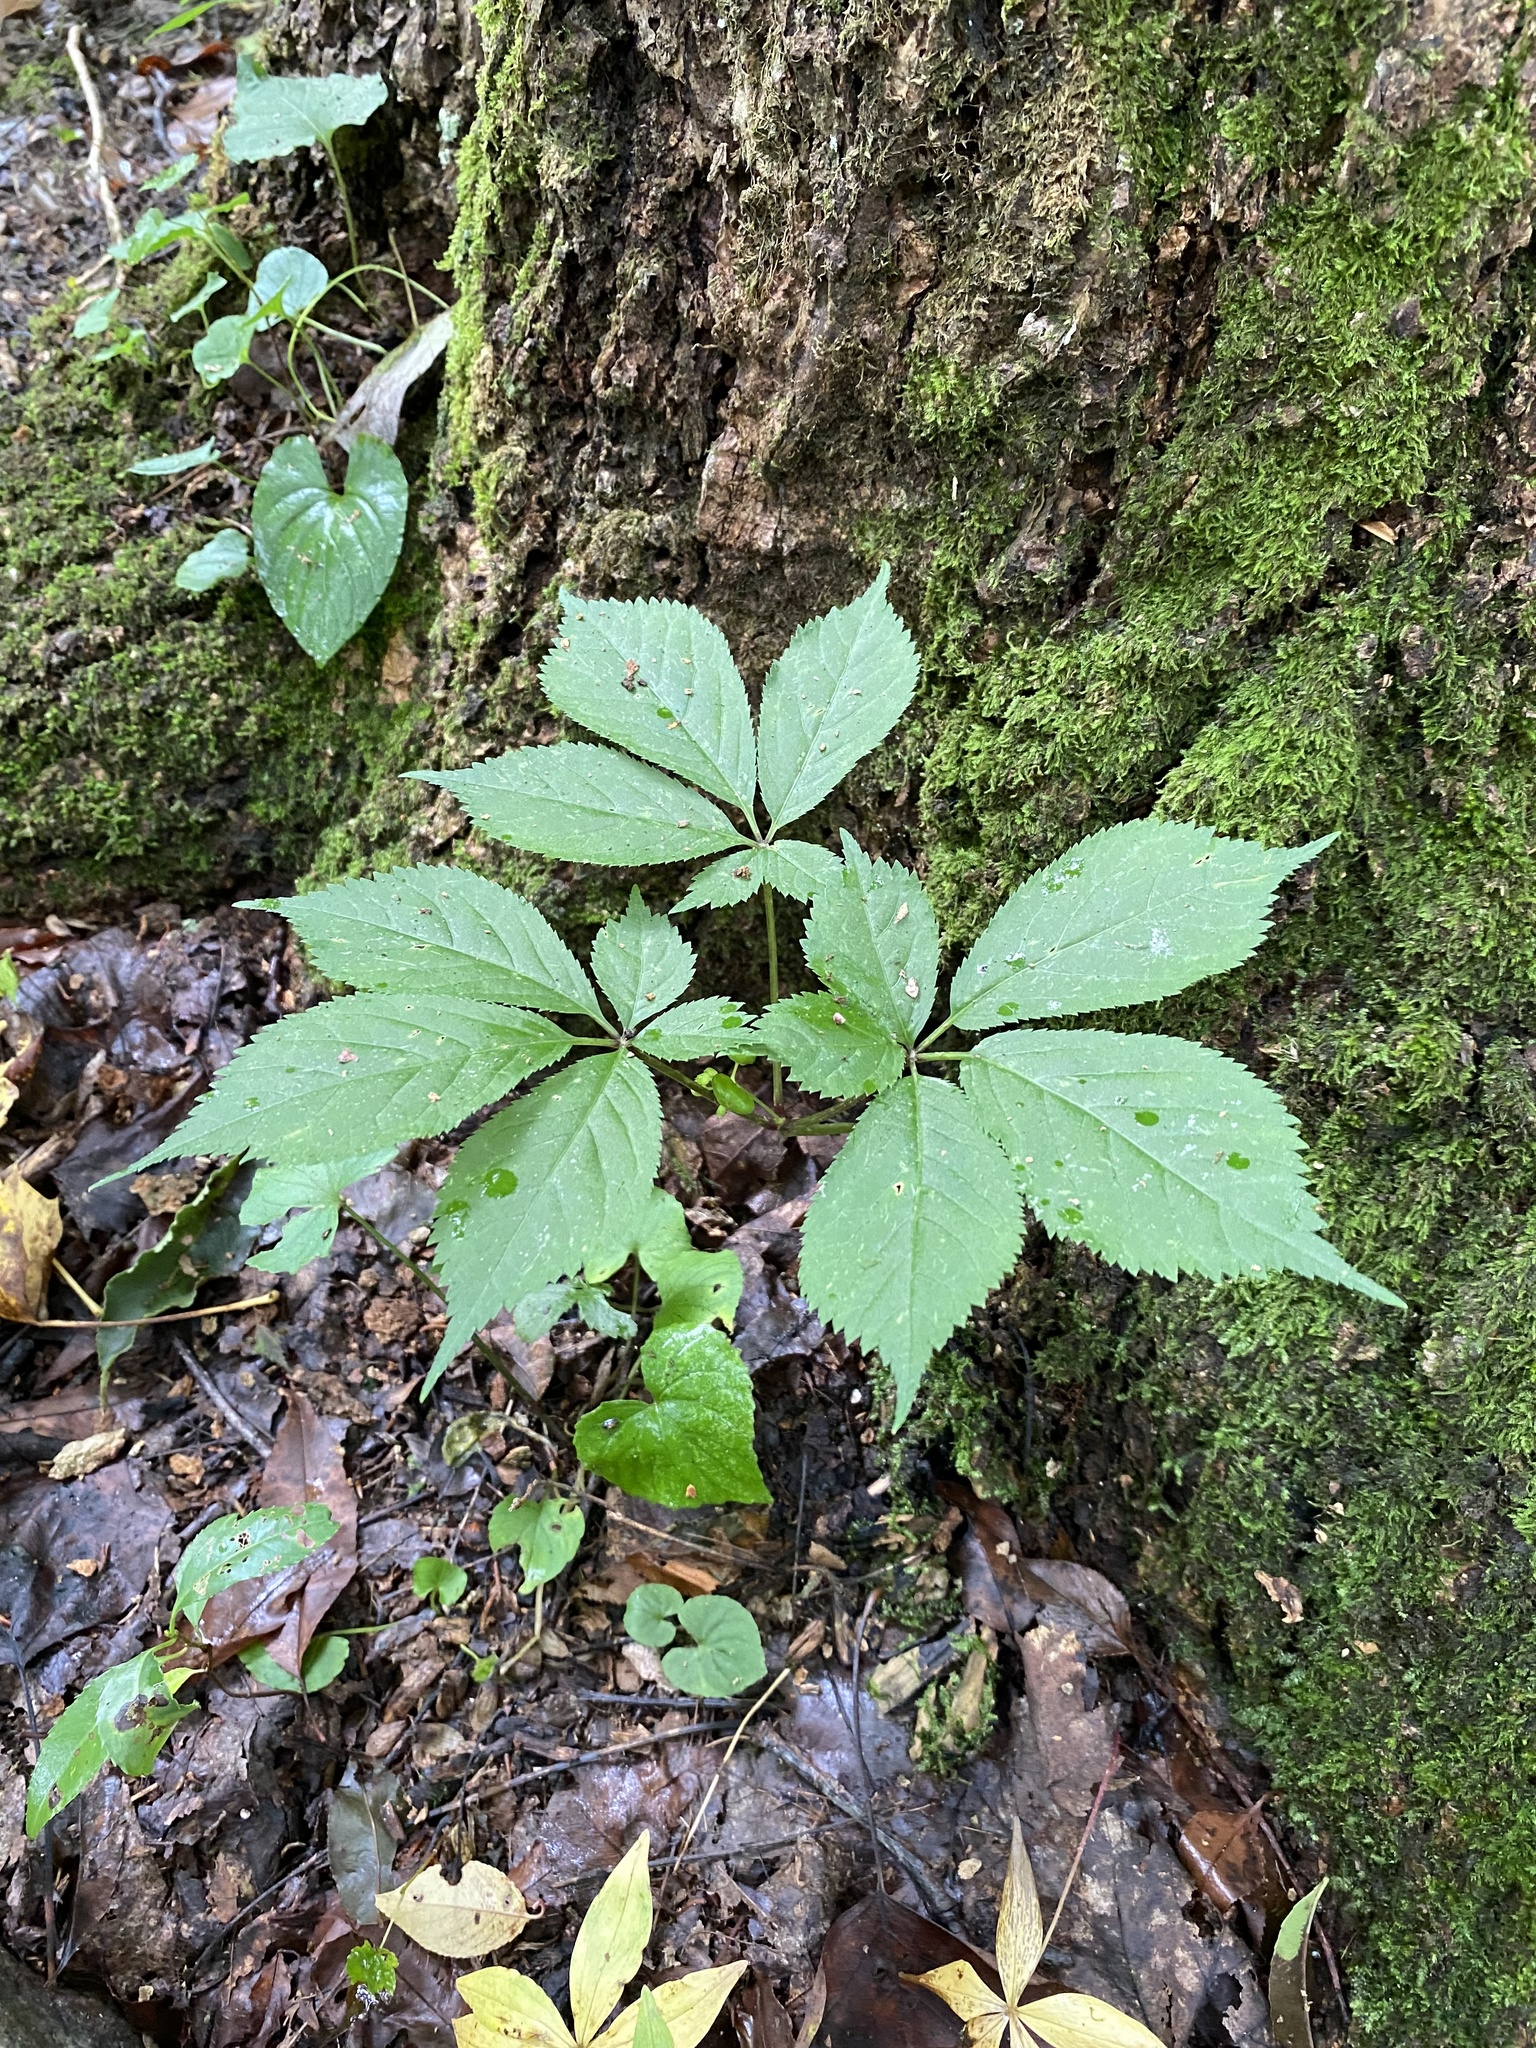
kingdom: Plantae
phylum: Tracheophyta
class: Magnoliopsida
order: Apiales
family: Araliaceae
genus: Panax
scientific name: Panax quinquefolius
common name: American ginseng
